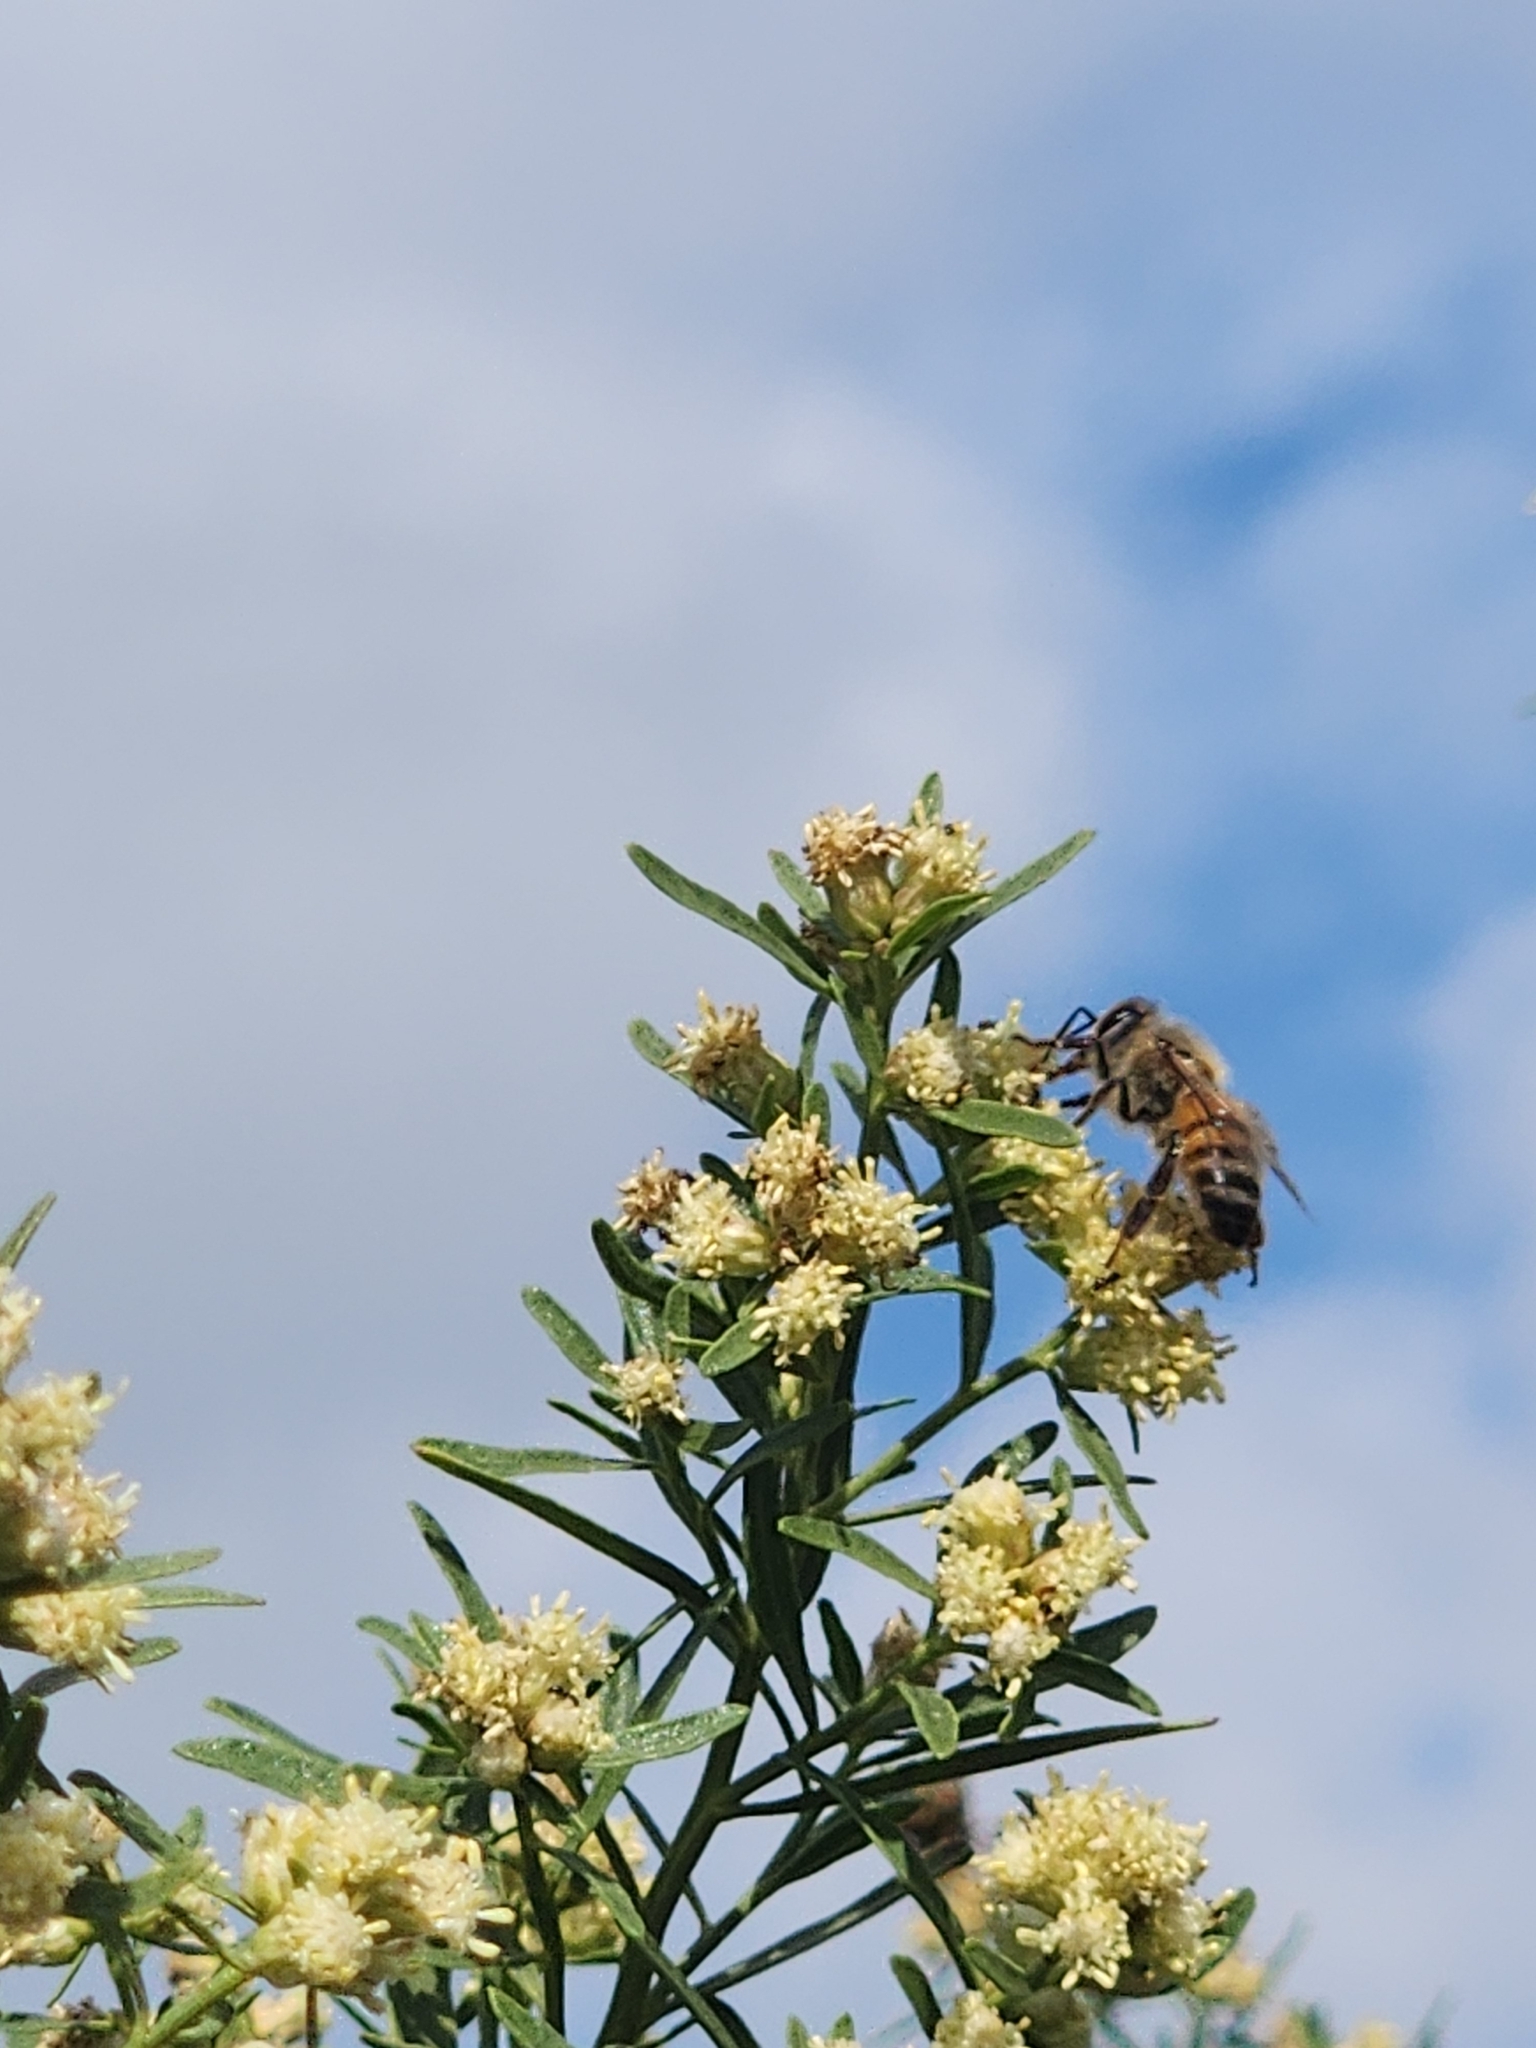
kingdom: Animalia
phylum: Arthropoda
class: Insecta
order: Hymenoptera
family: Apidae
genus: Apis
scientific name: Apis mellifera
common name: Honey bee
